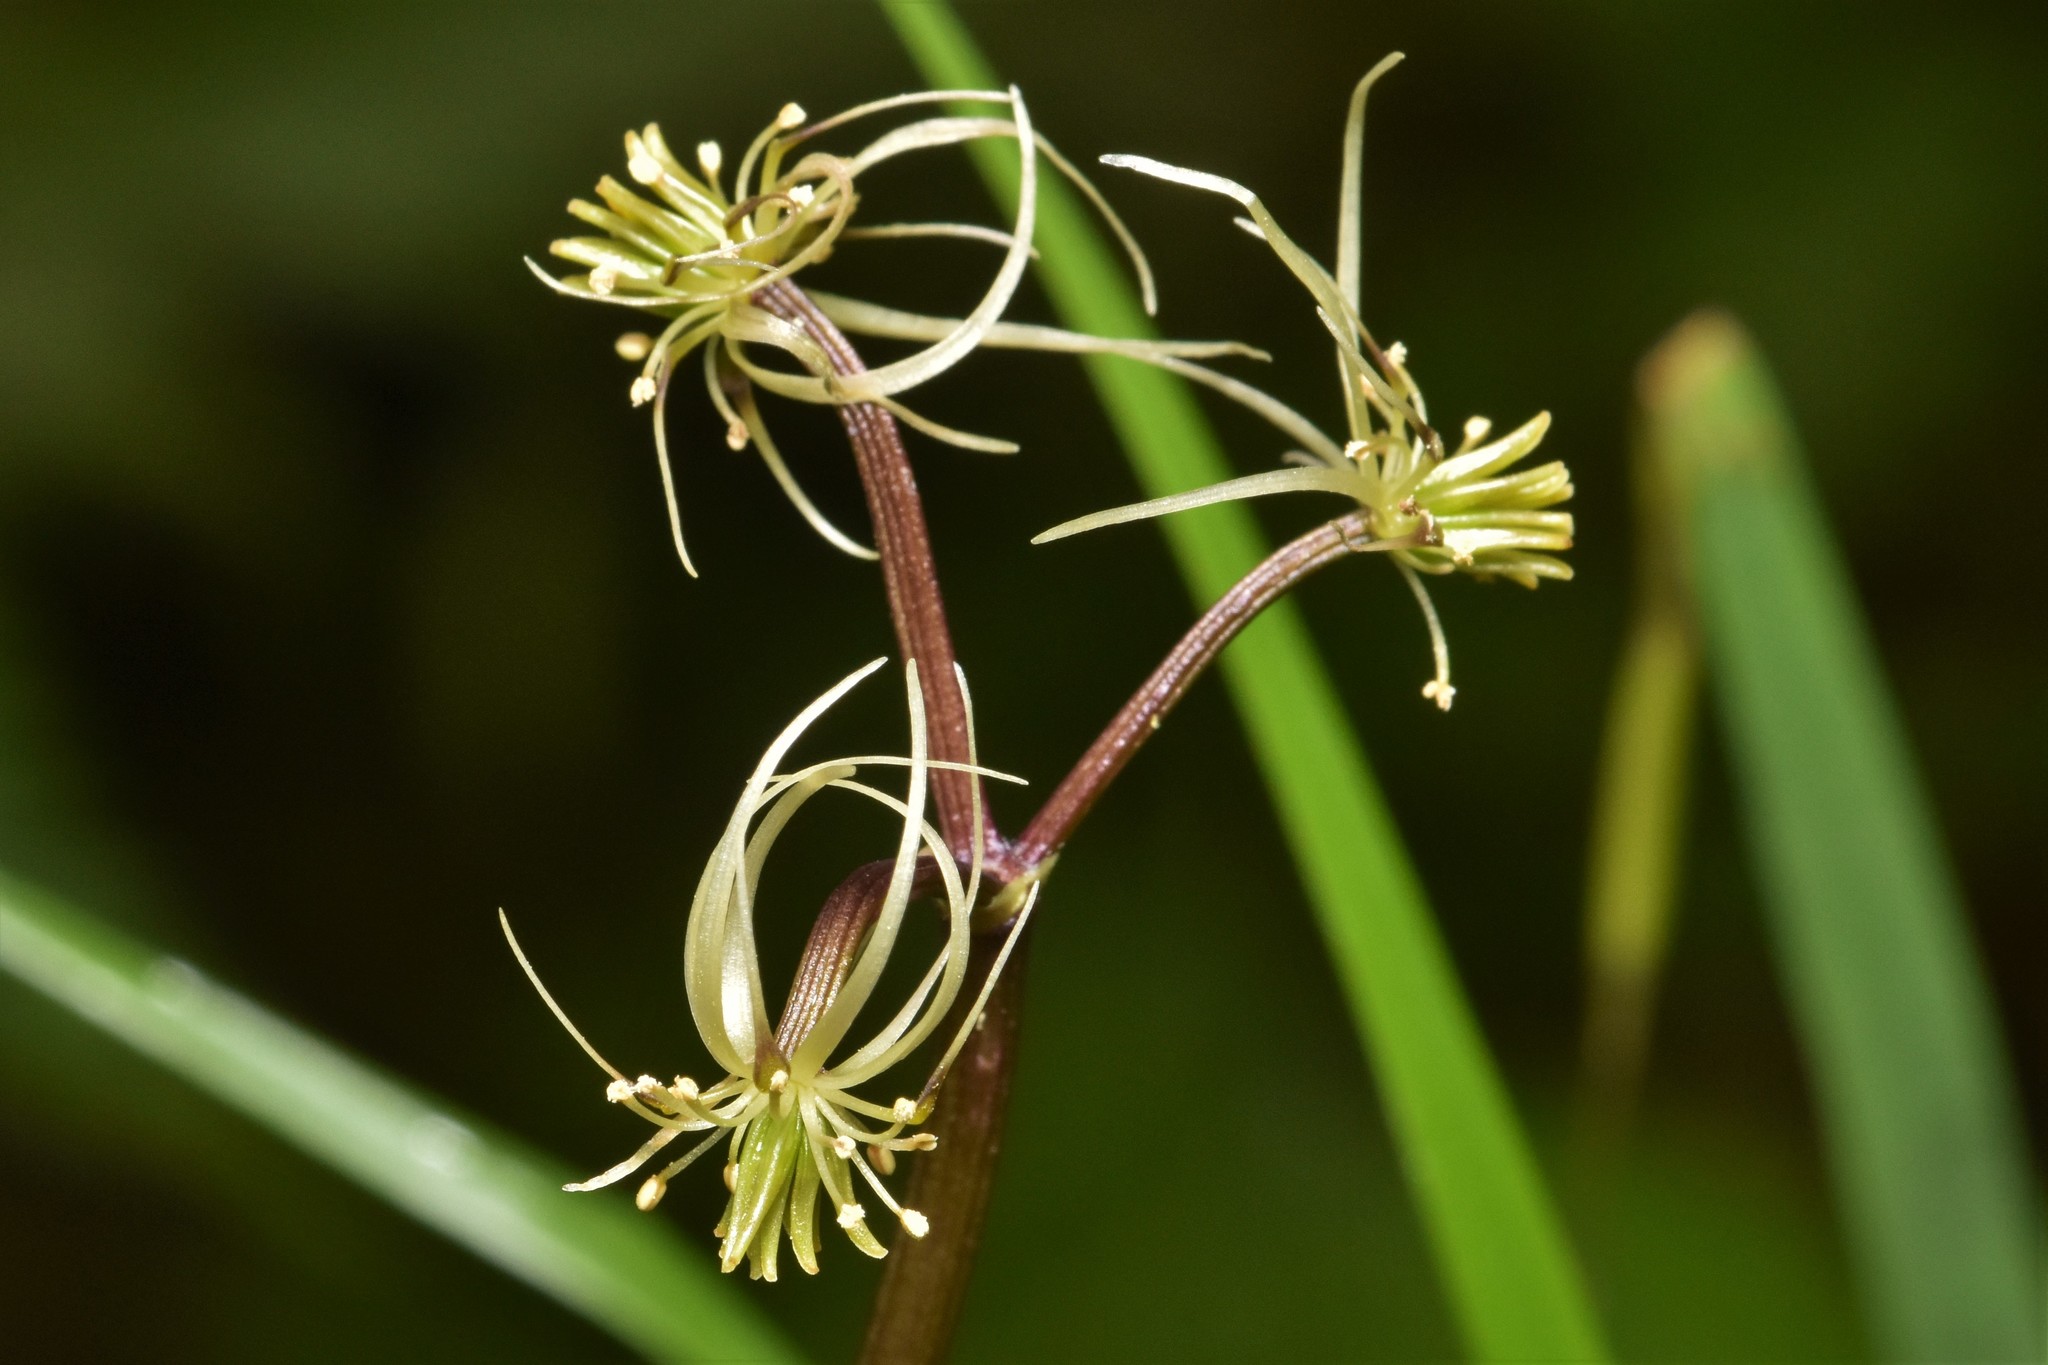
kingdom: Plantae
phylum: Tracheophyta
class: Magnoliopsida
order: Ranunculales
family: Ranunculaceae
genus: Coptis
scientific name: Coptis aspleniifolia
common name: Fern-leaved goldthread
